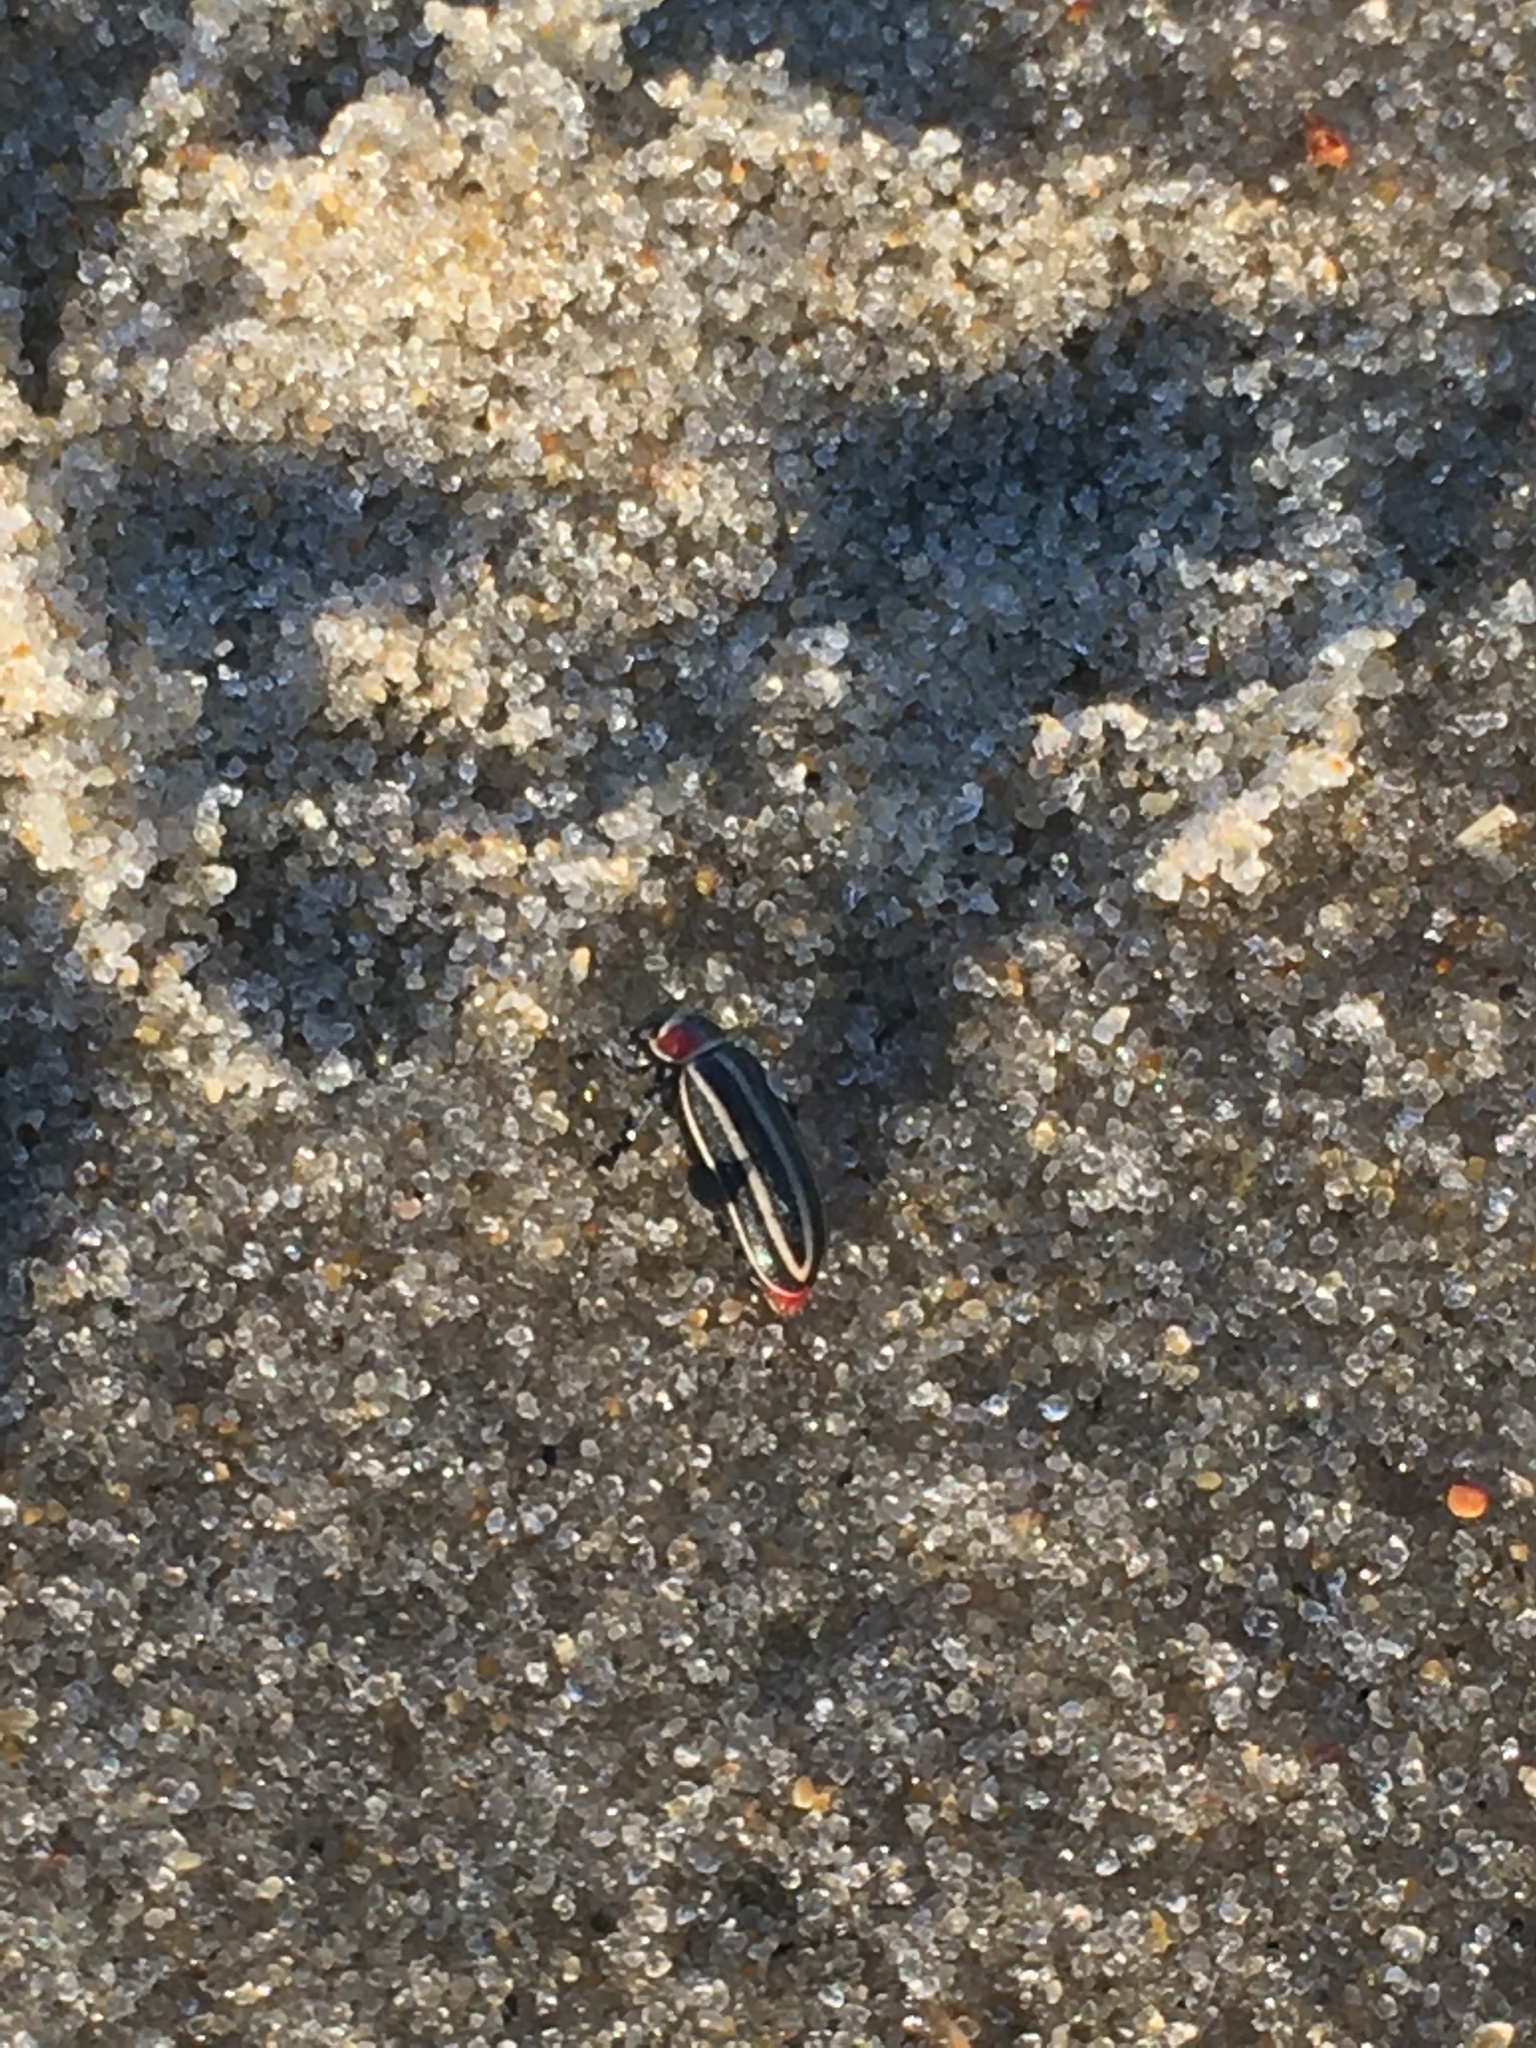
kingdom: Animalia
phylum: Arthropoda
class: Insecta
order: Coleoptera
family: Chrysomelidae
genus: Disonycha
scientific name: Disonycha pensylvanica
